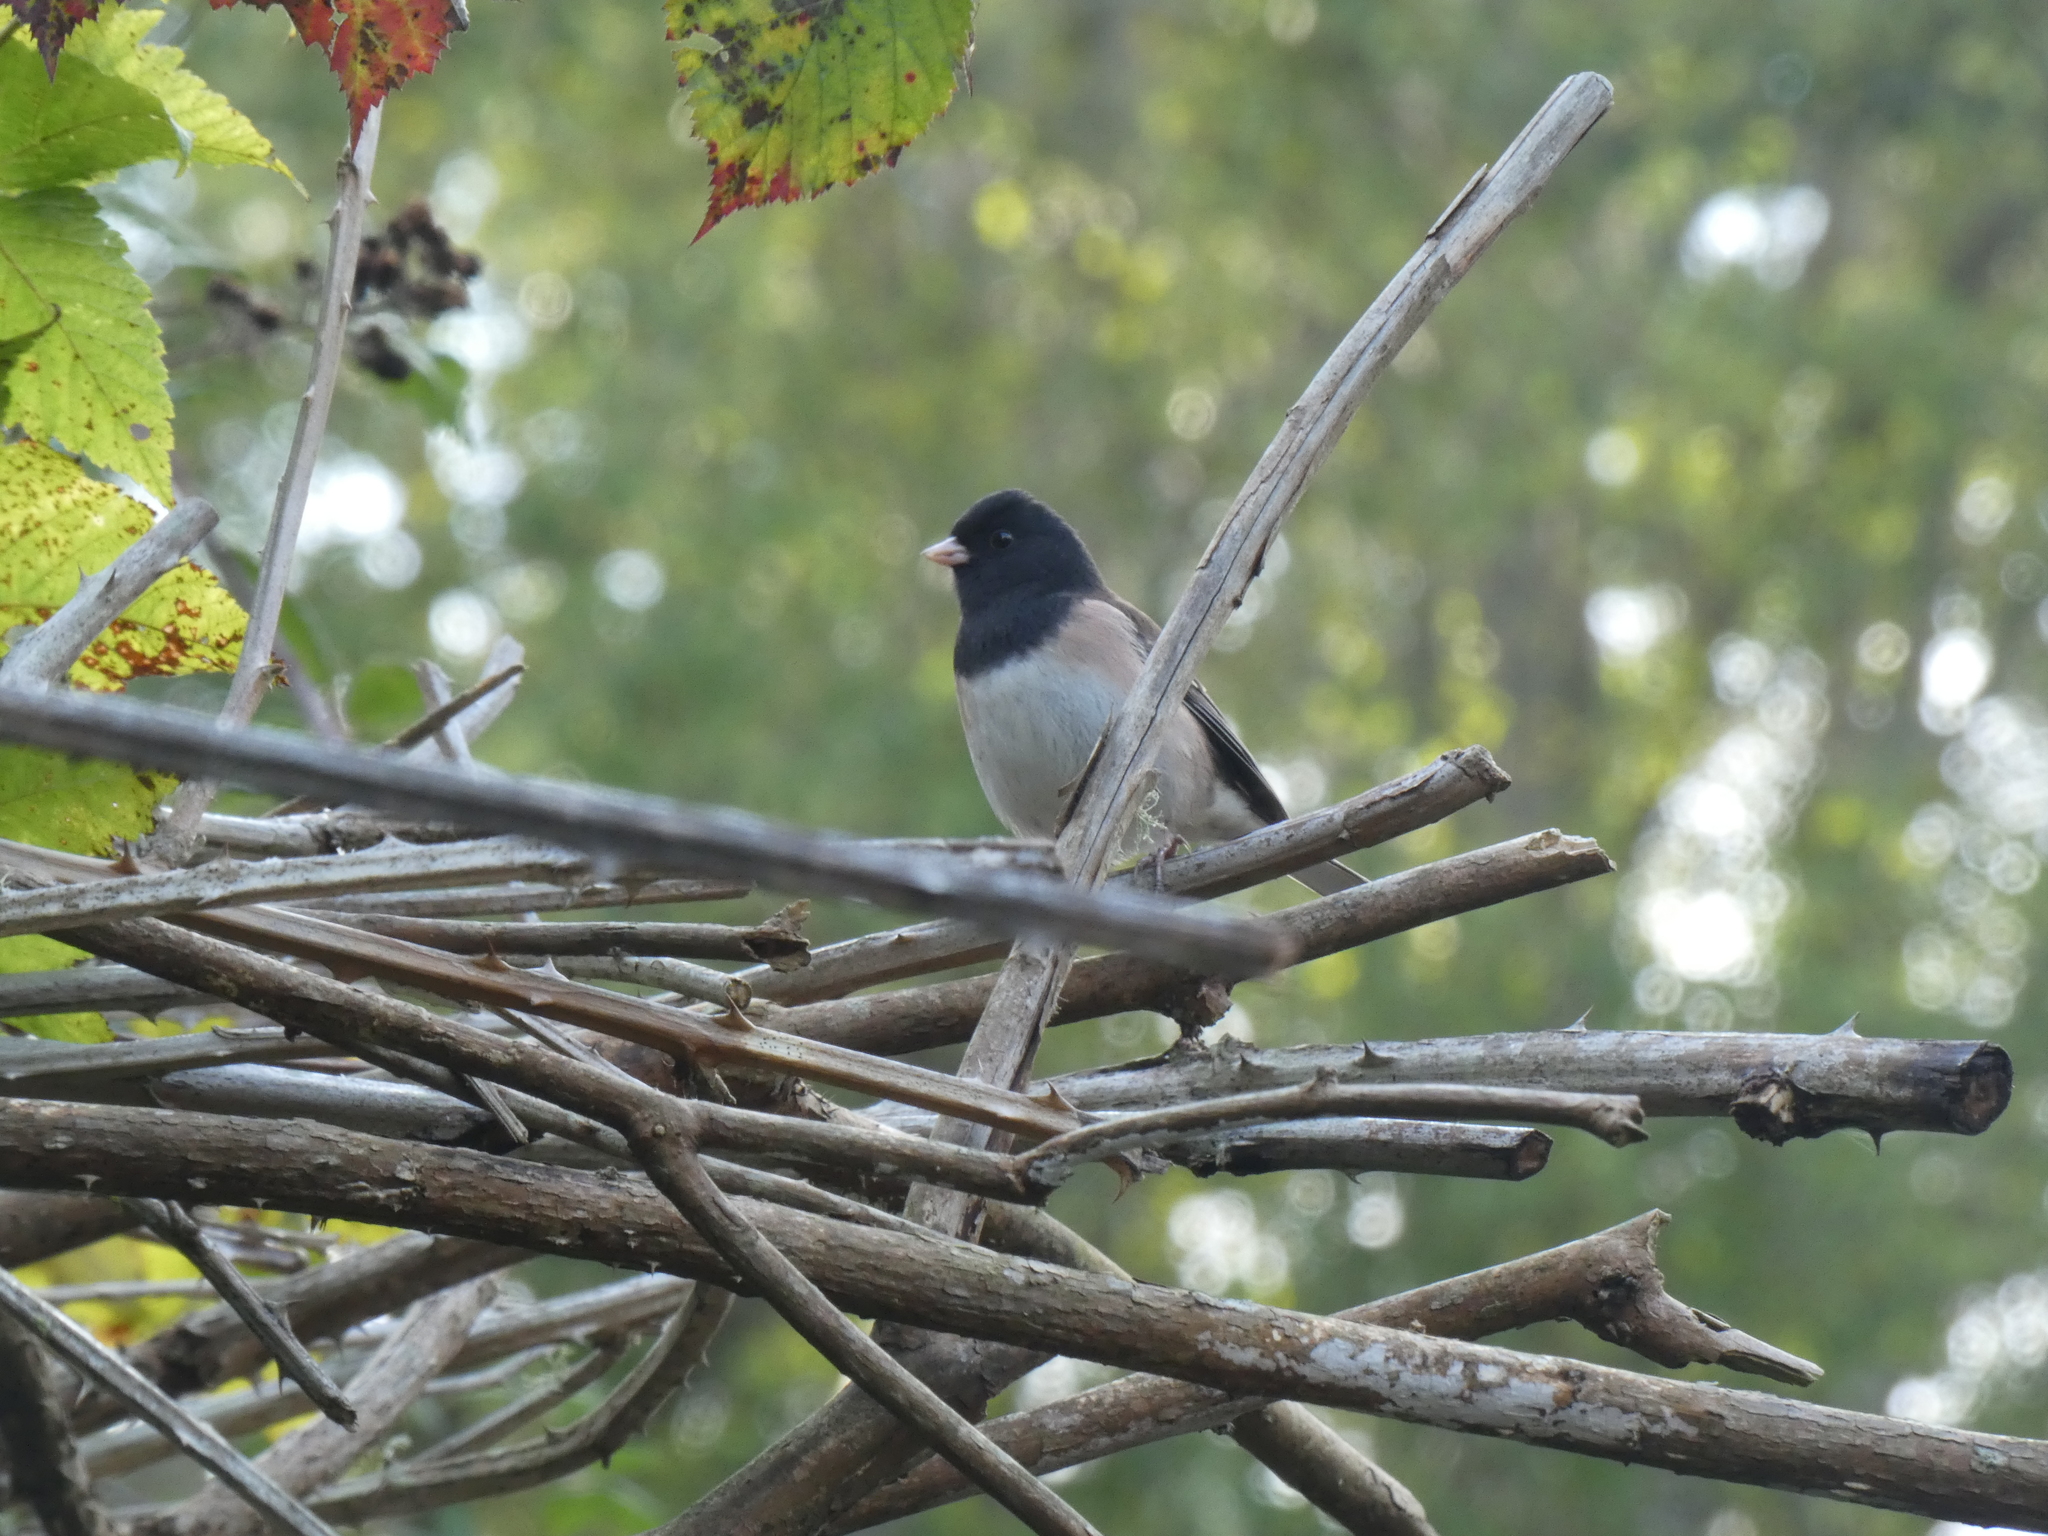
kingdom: Animalia
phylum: Chordata
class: Aves
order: Passeriformes
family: Passerellidae
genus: Junco
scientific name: Junco hyemalis
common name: Dark-eyed junco
